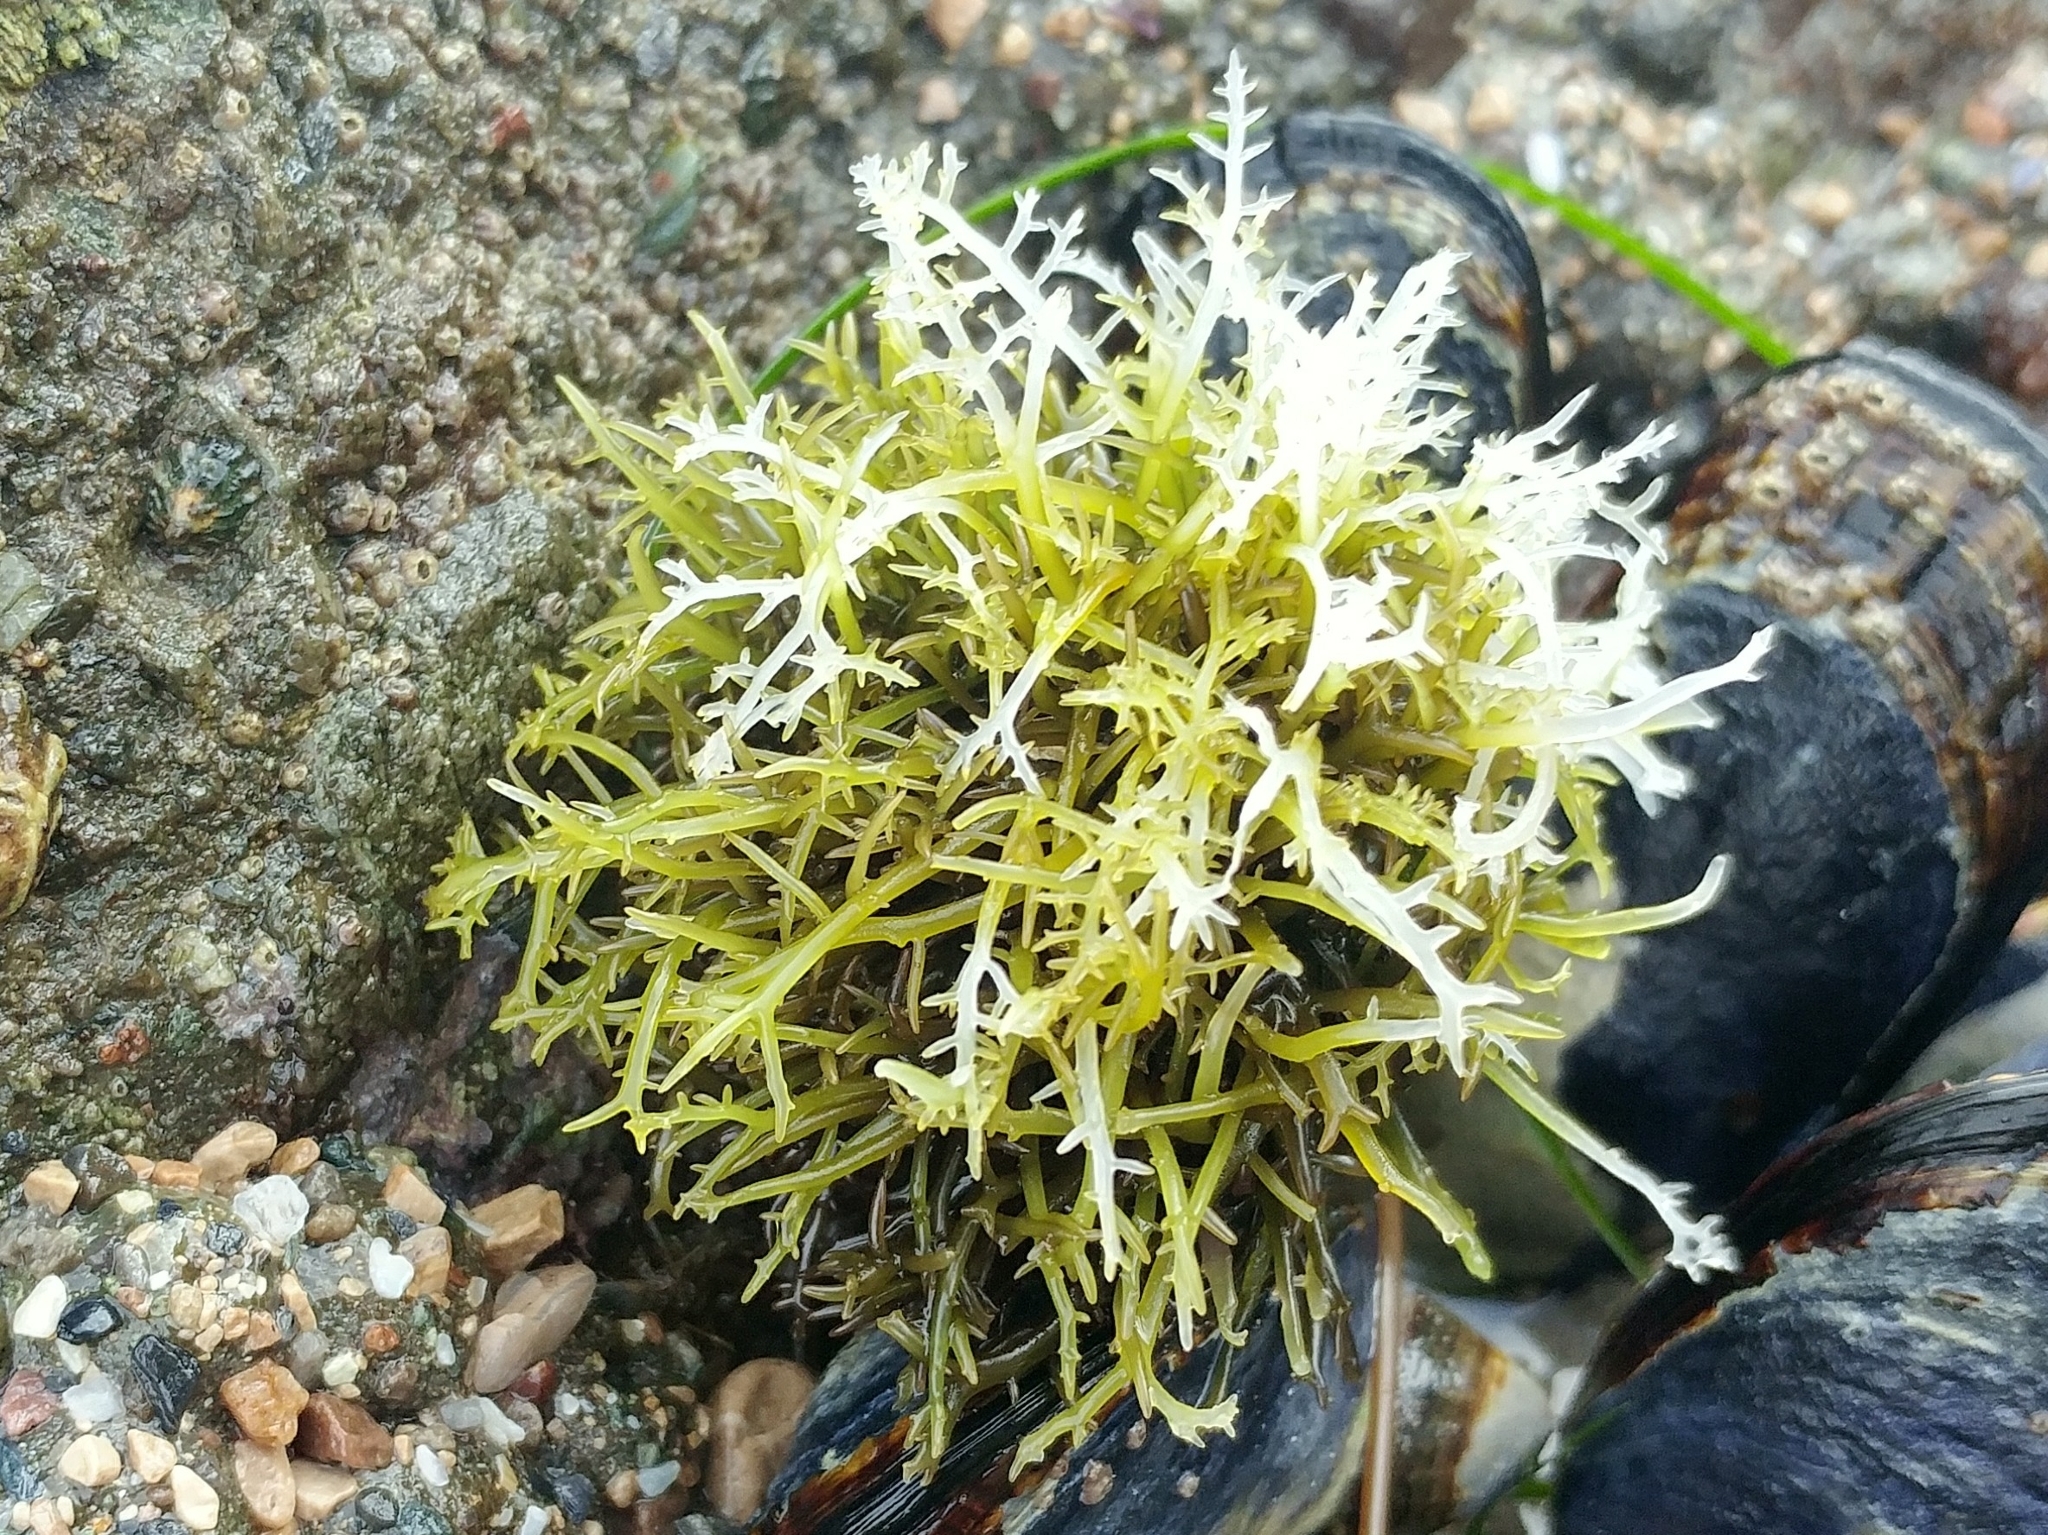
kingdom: Plantae
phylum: Rhodophyta
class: Florideophyceae
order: Gigartinales
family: Gigartinaceae
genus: Chondracanthus
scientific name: Chondracanthus canaliculatus
